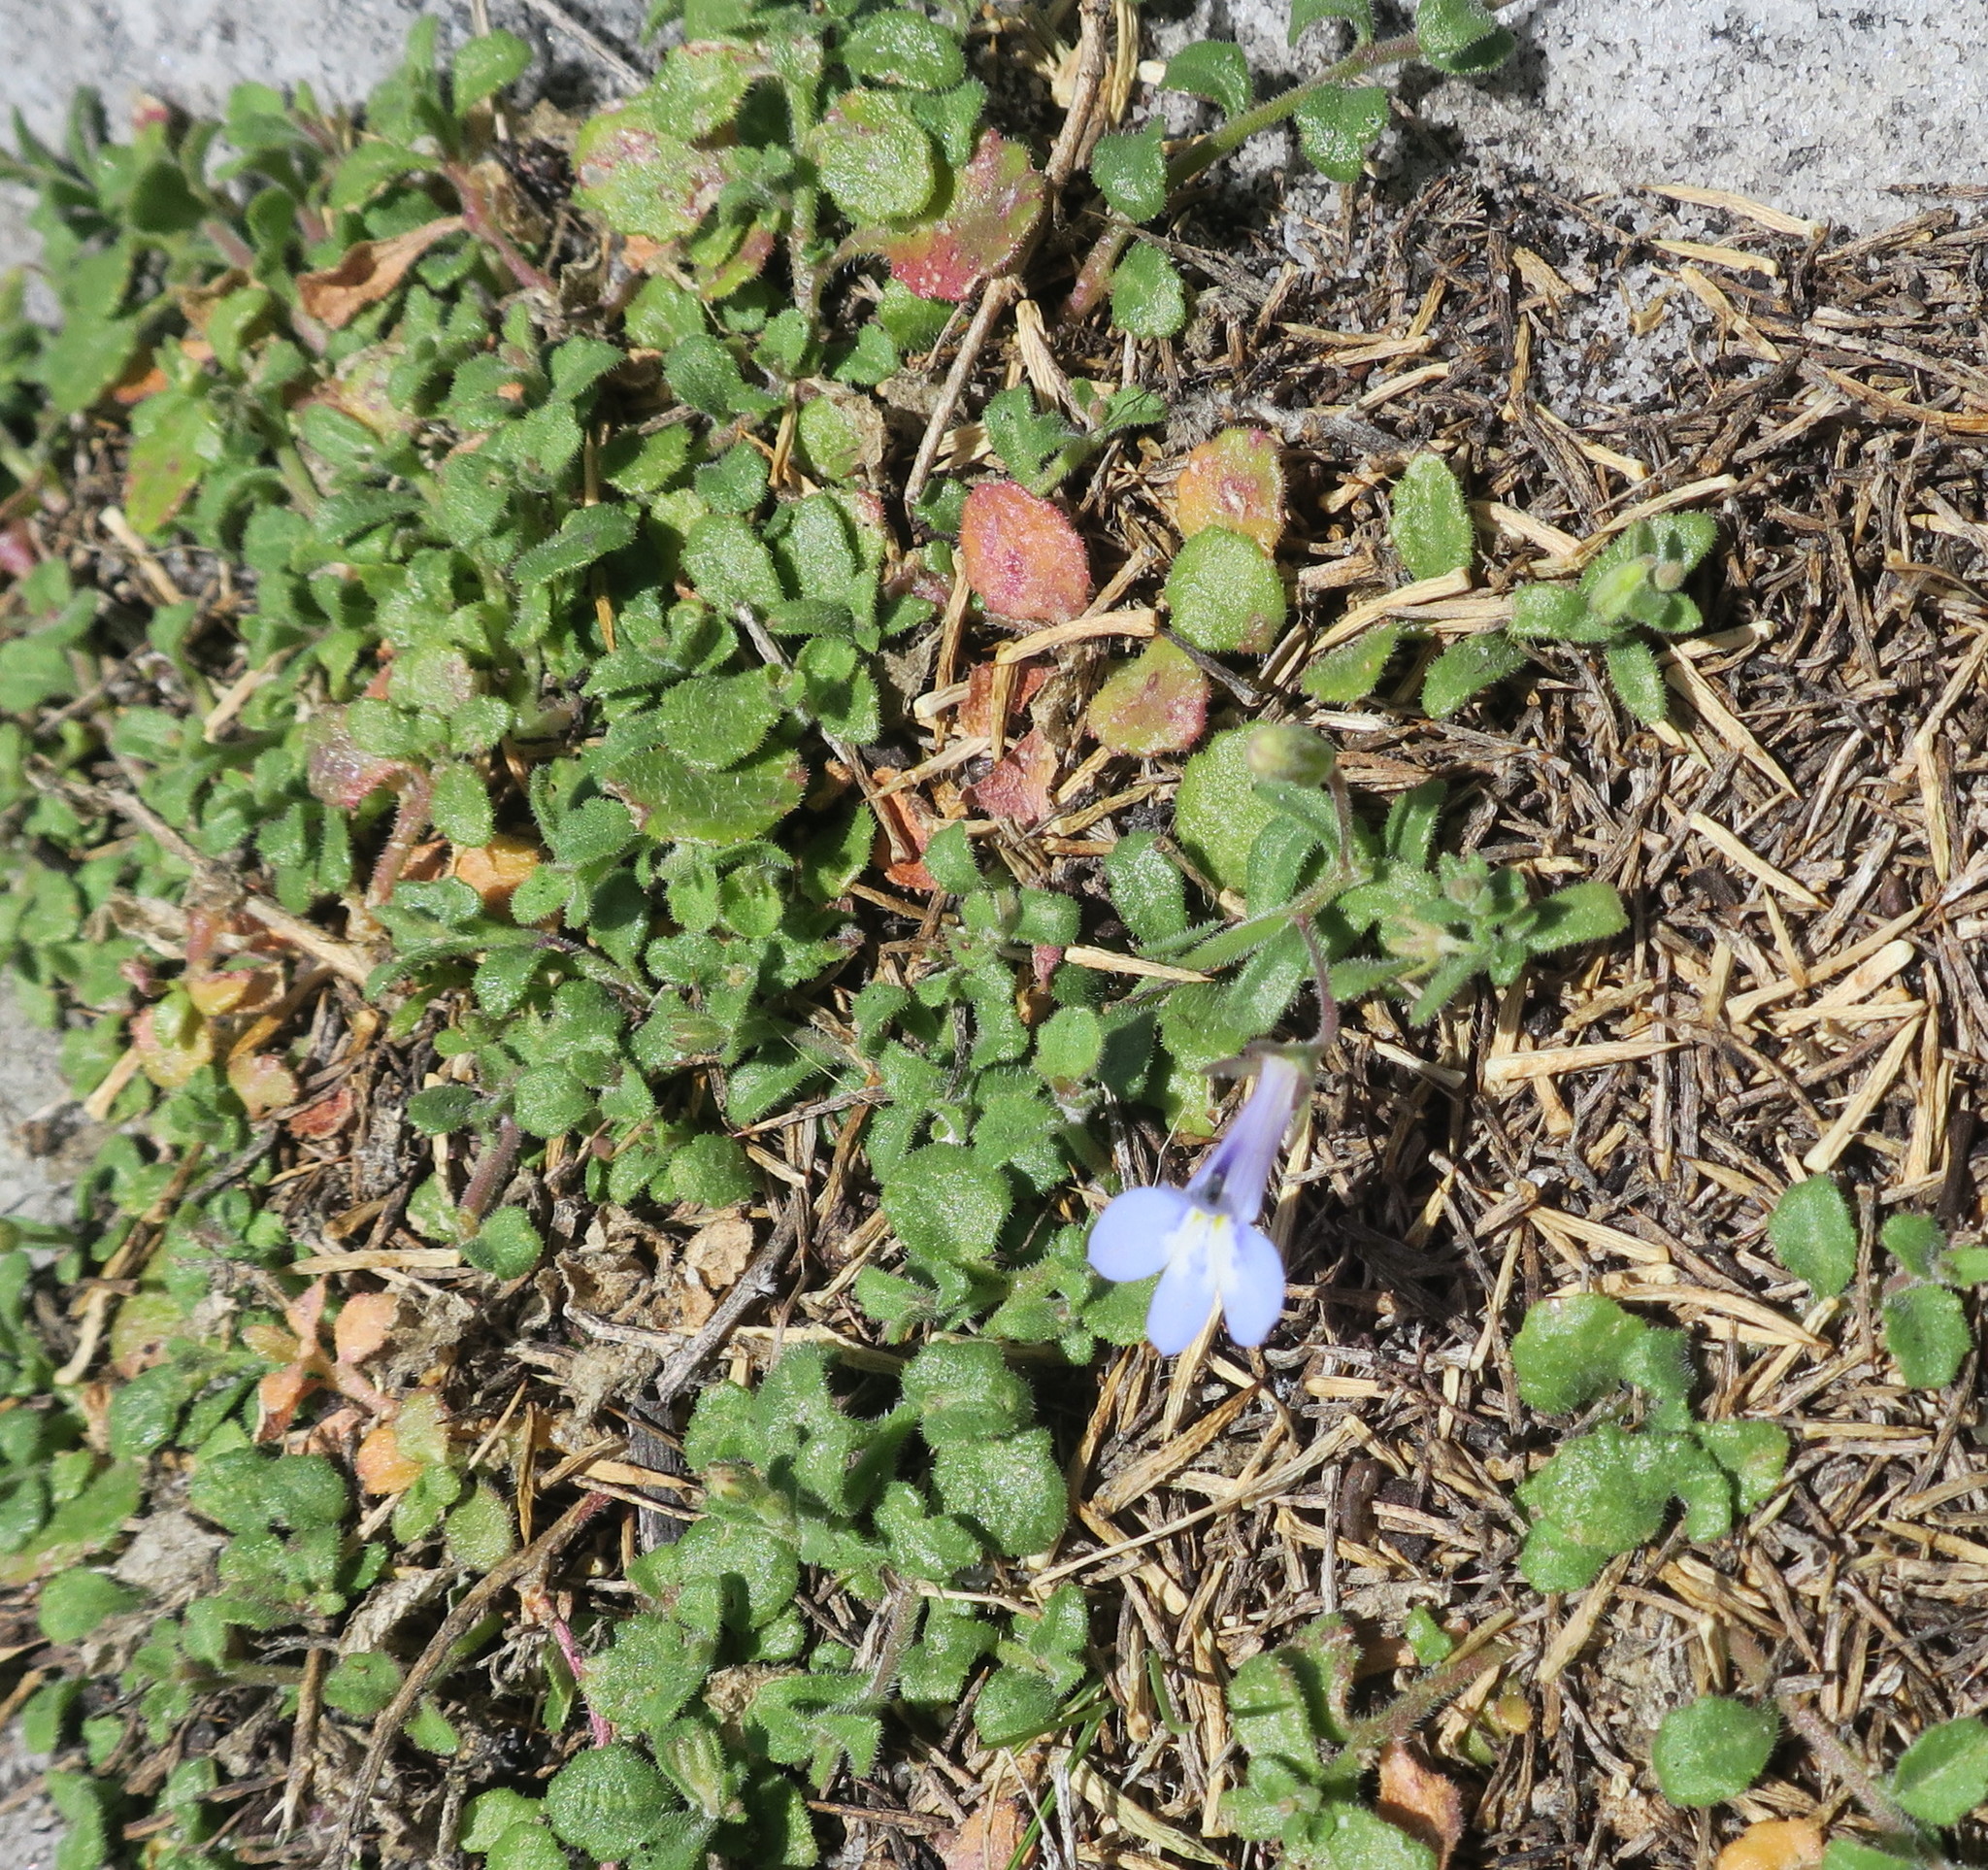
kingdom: Plantae
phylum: Tracheophyta
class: Magnoliopsida
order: Asterales
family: Campanulaceae
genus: Lobelia
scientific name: Lobelia boivinii
